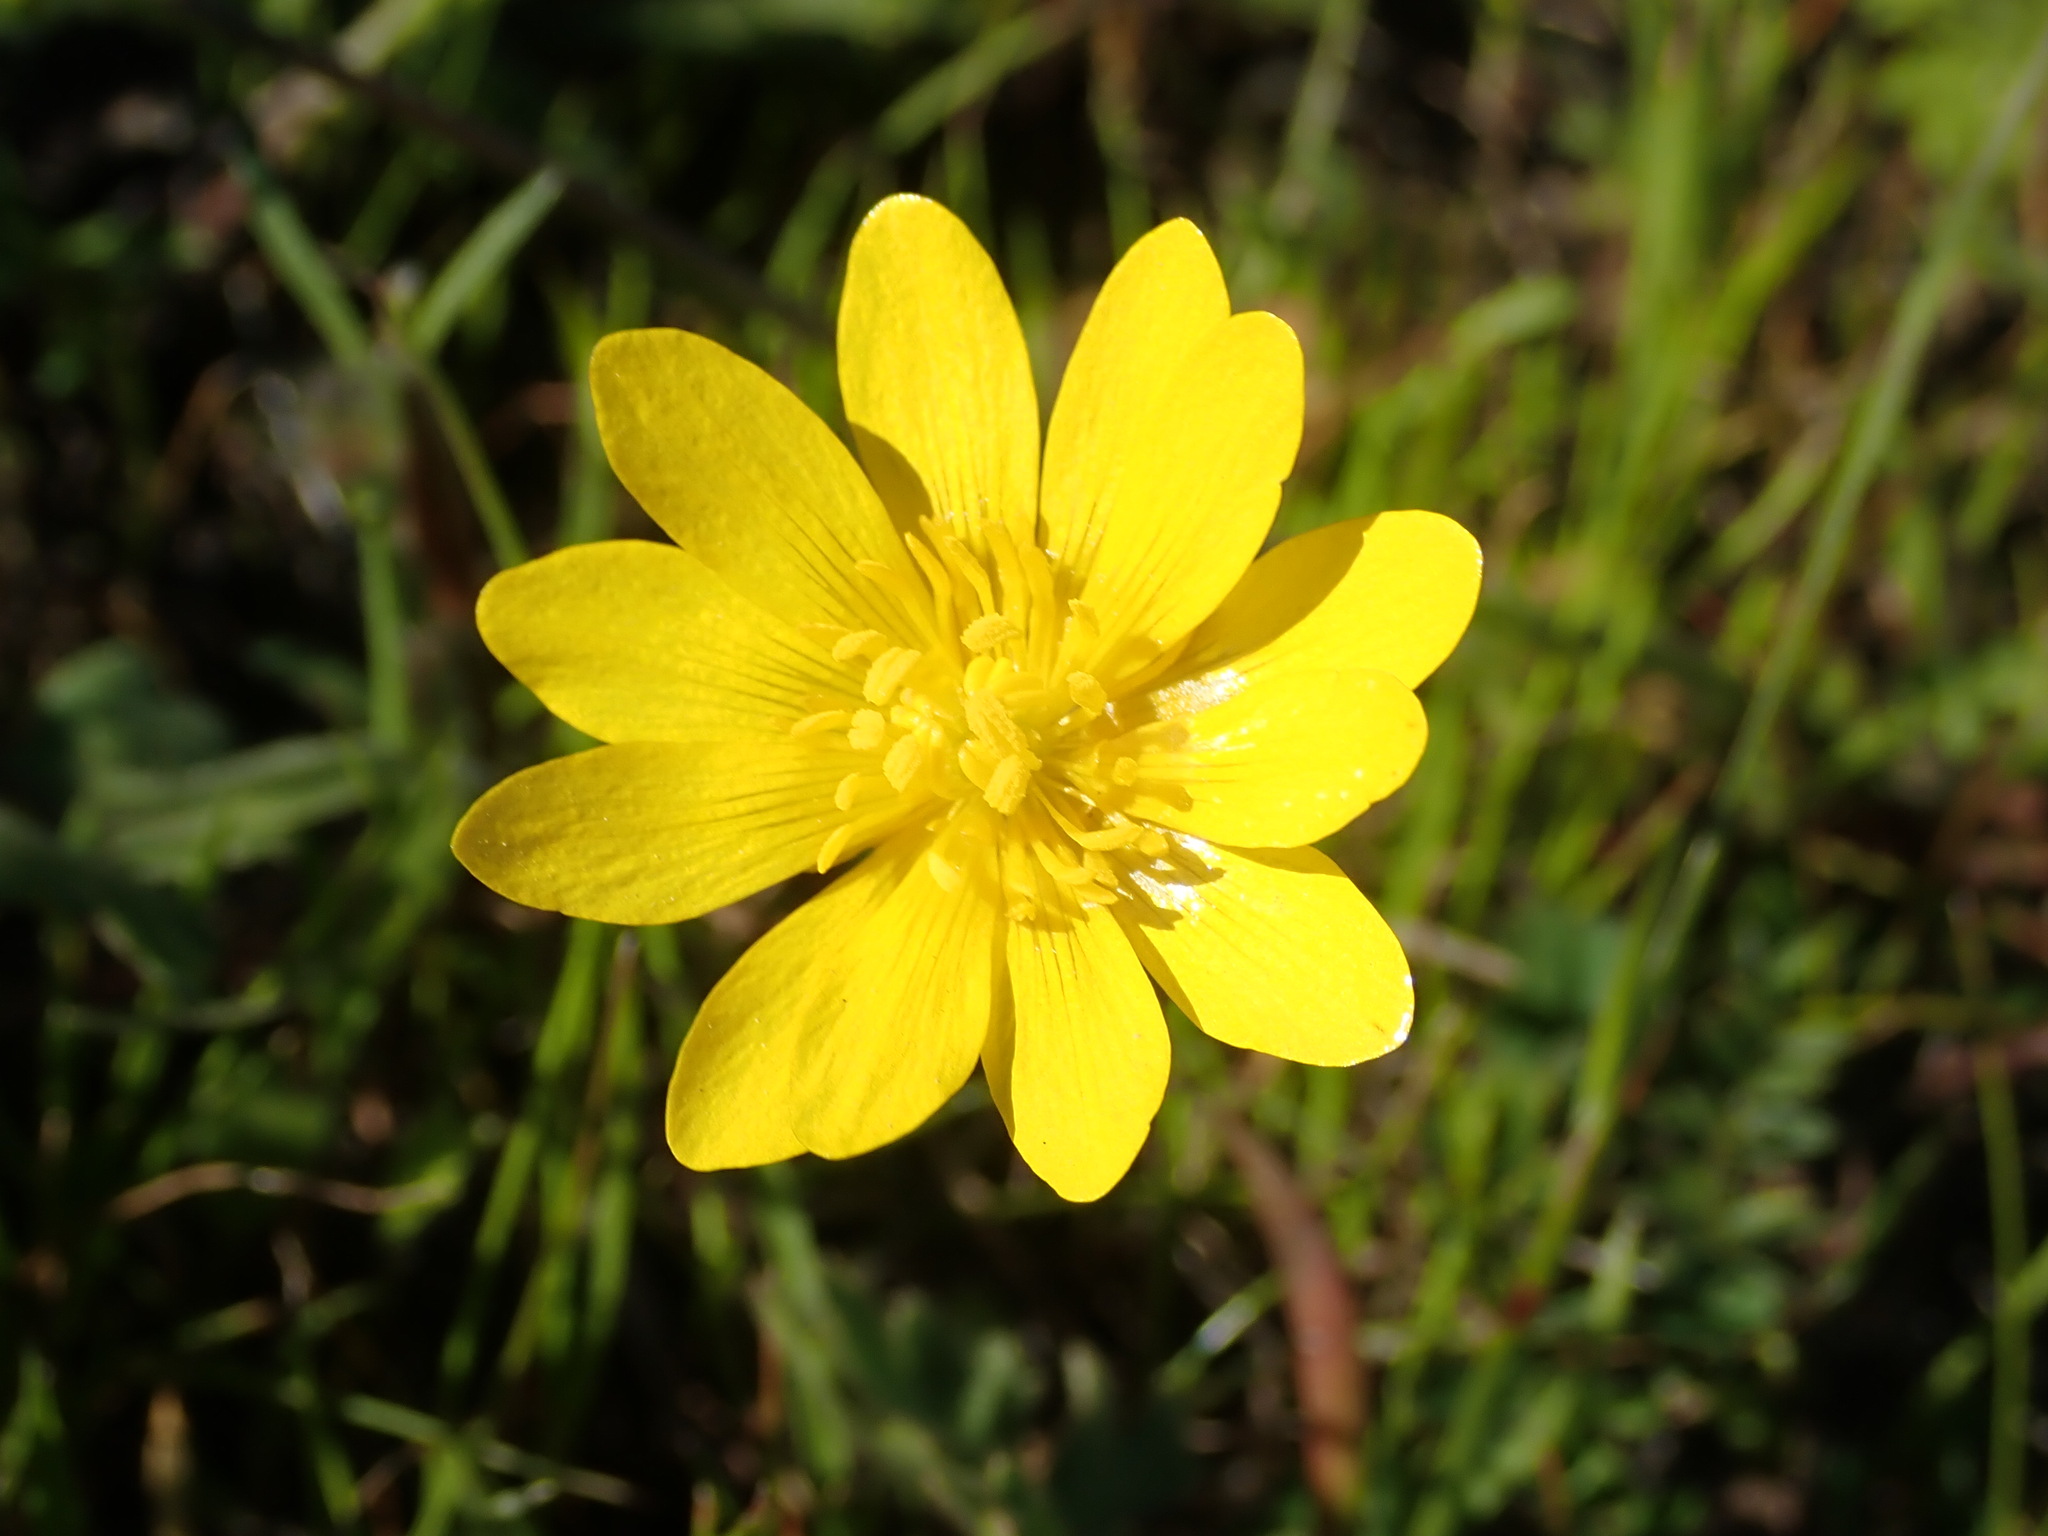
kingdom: Plantae
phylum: Tracheophyta
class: Magnoliopsida
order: Ranunculales
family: Ranunculaceae
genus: Ranunculus
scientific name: Ranunculus californicus
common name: California buttercup
